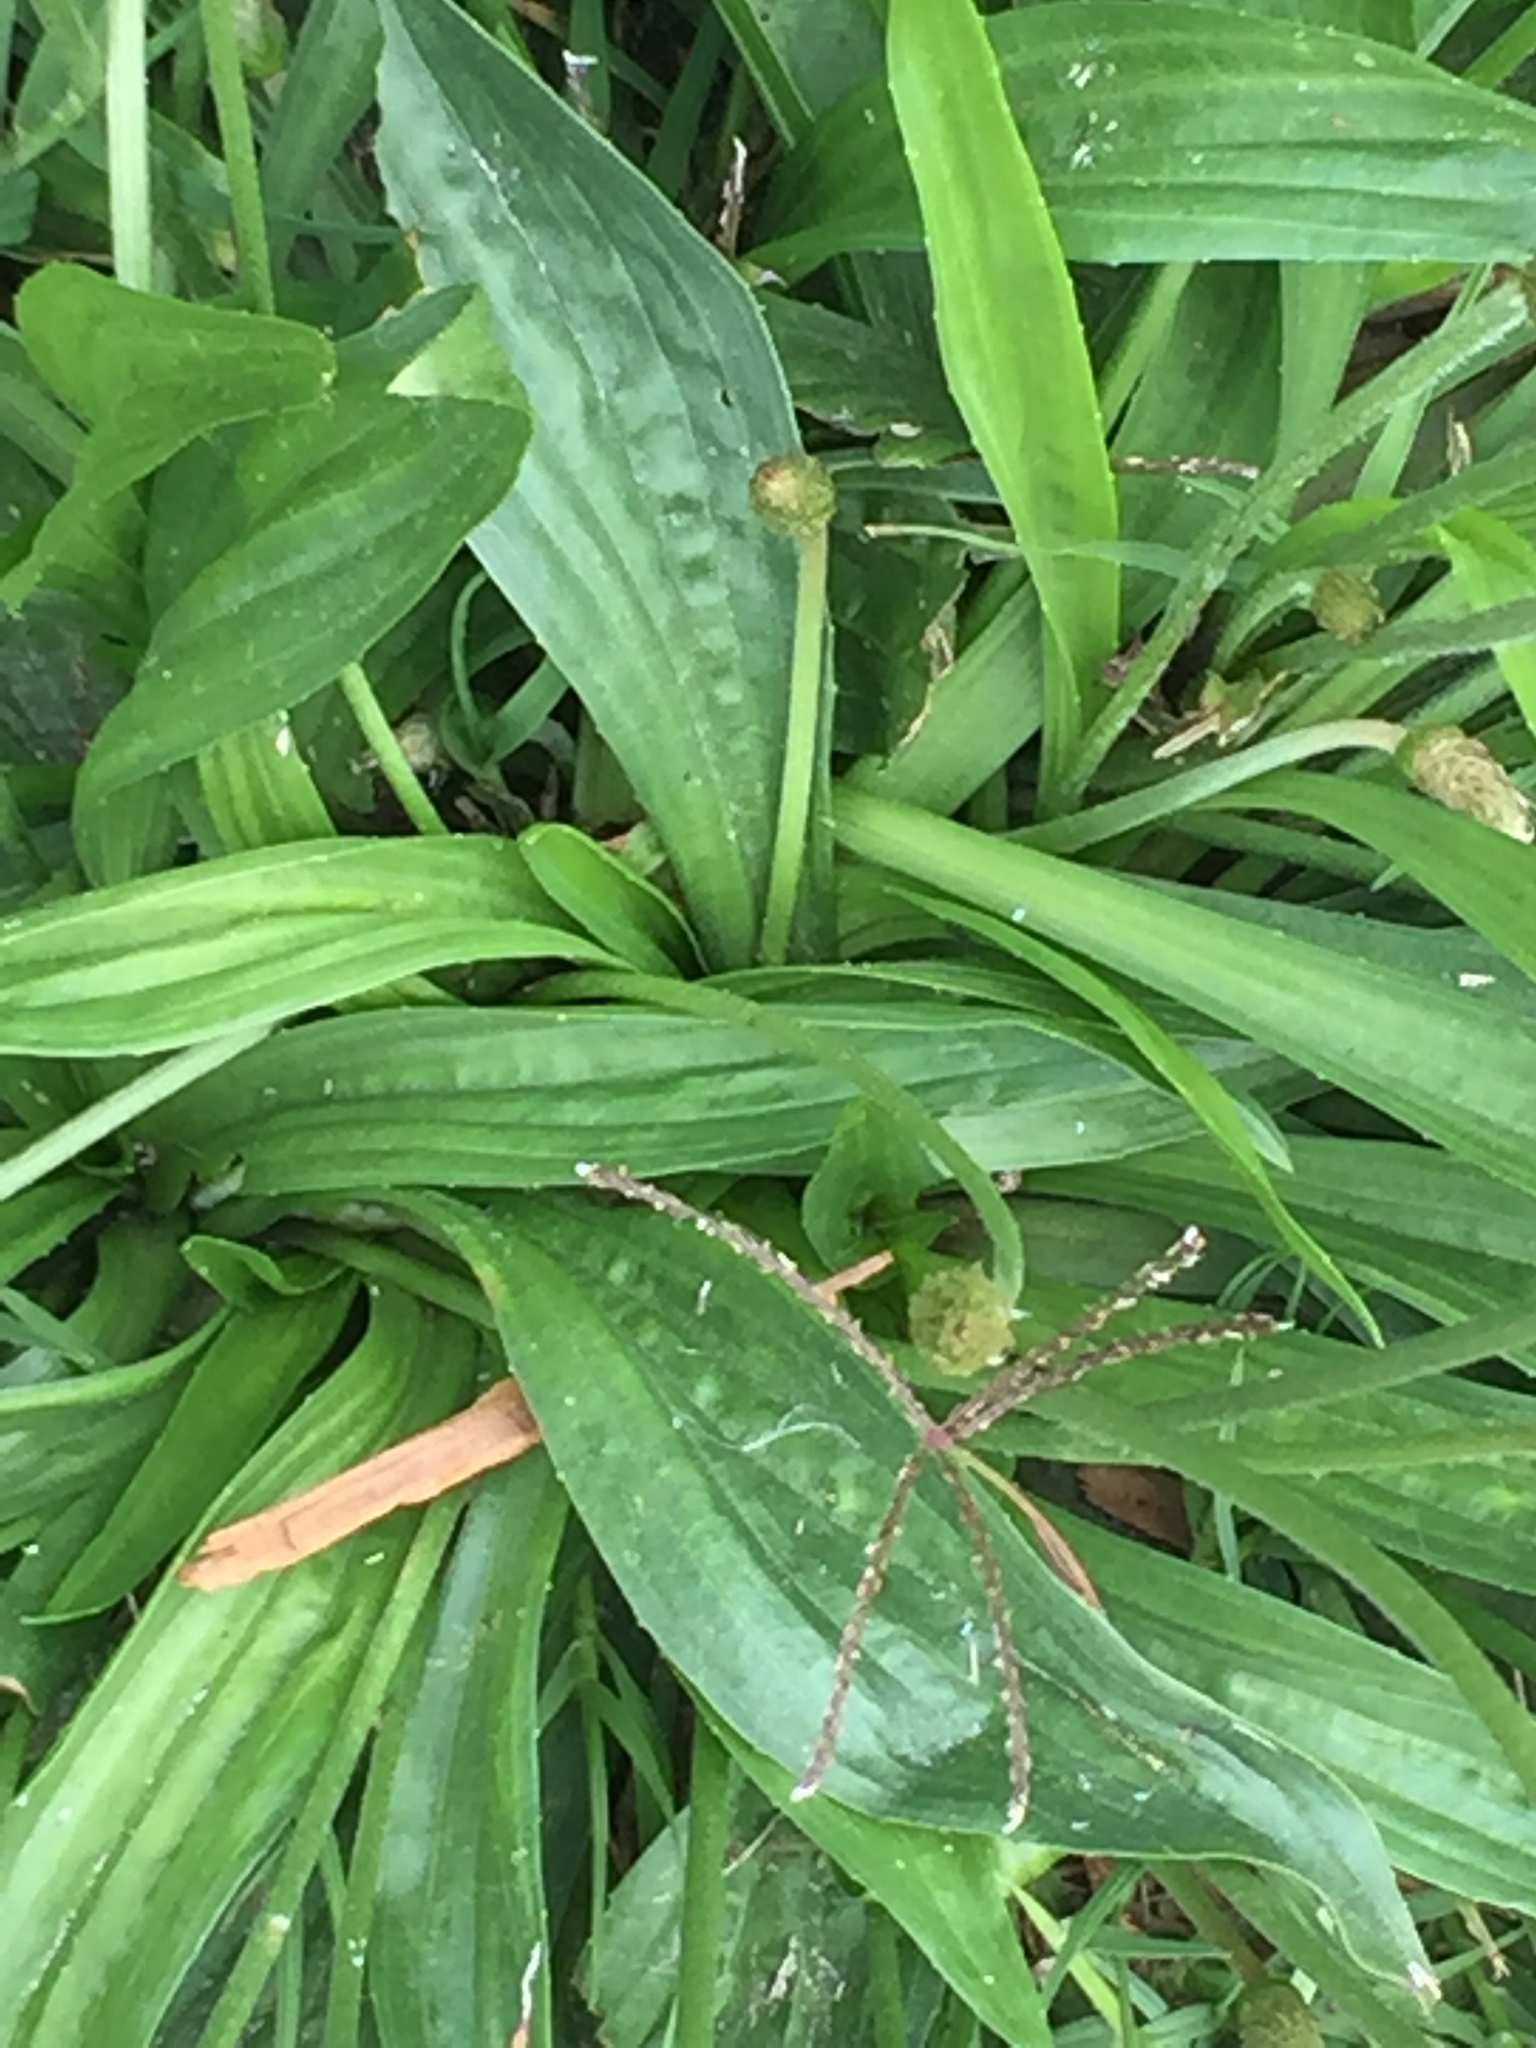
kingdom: Plantae
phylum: Tracheophyta
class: Magnoliopsida
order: Lamiales
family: Plantaginaceae
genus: Plantago
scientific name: Plantago lanceolata
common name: Ribwort plantain
